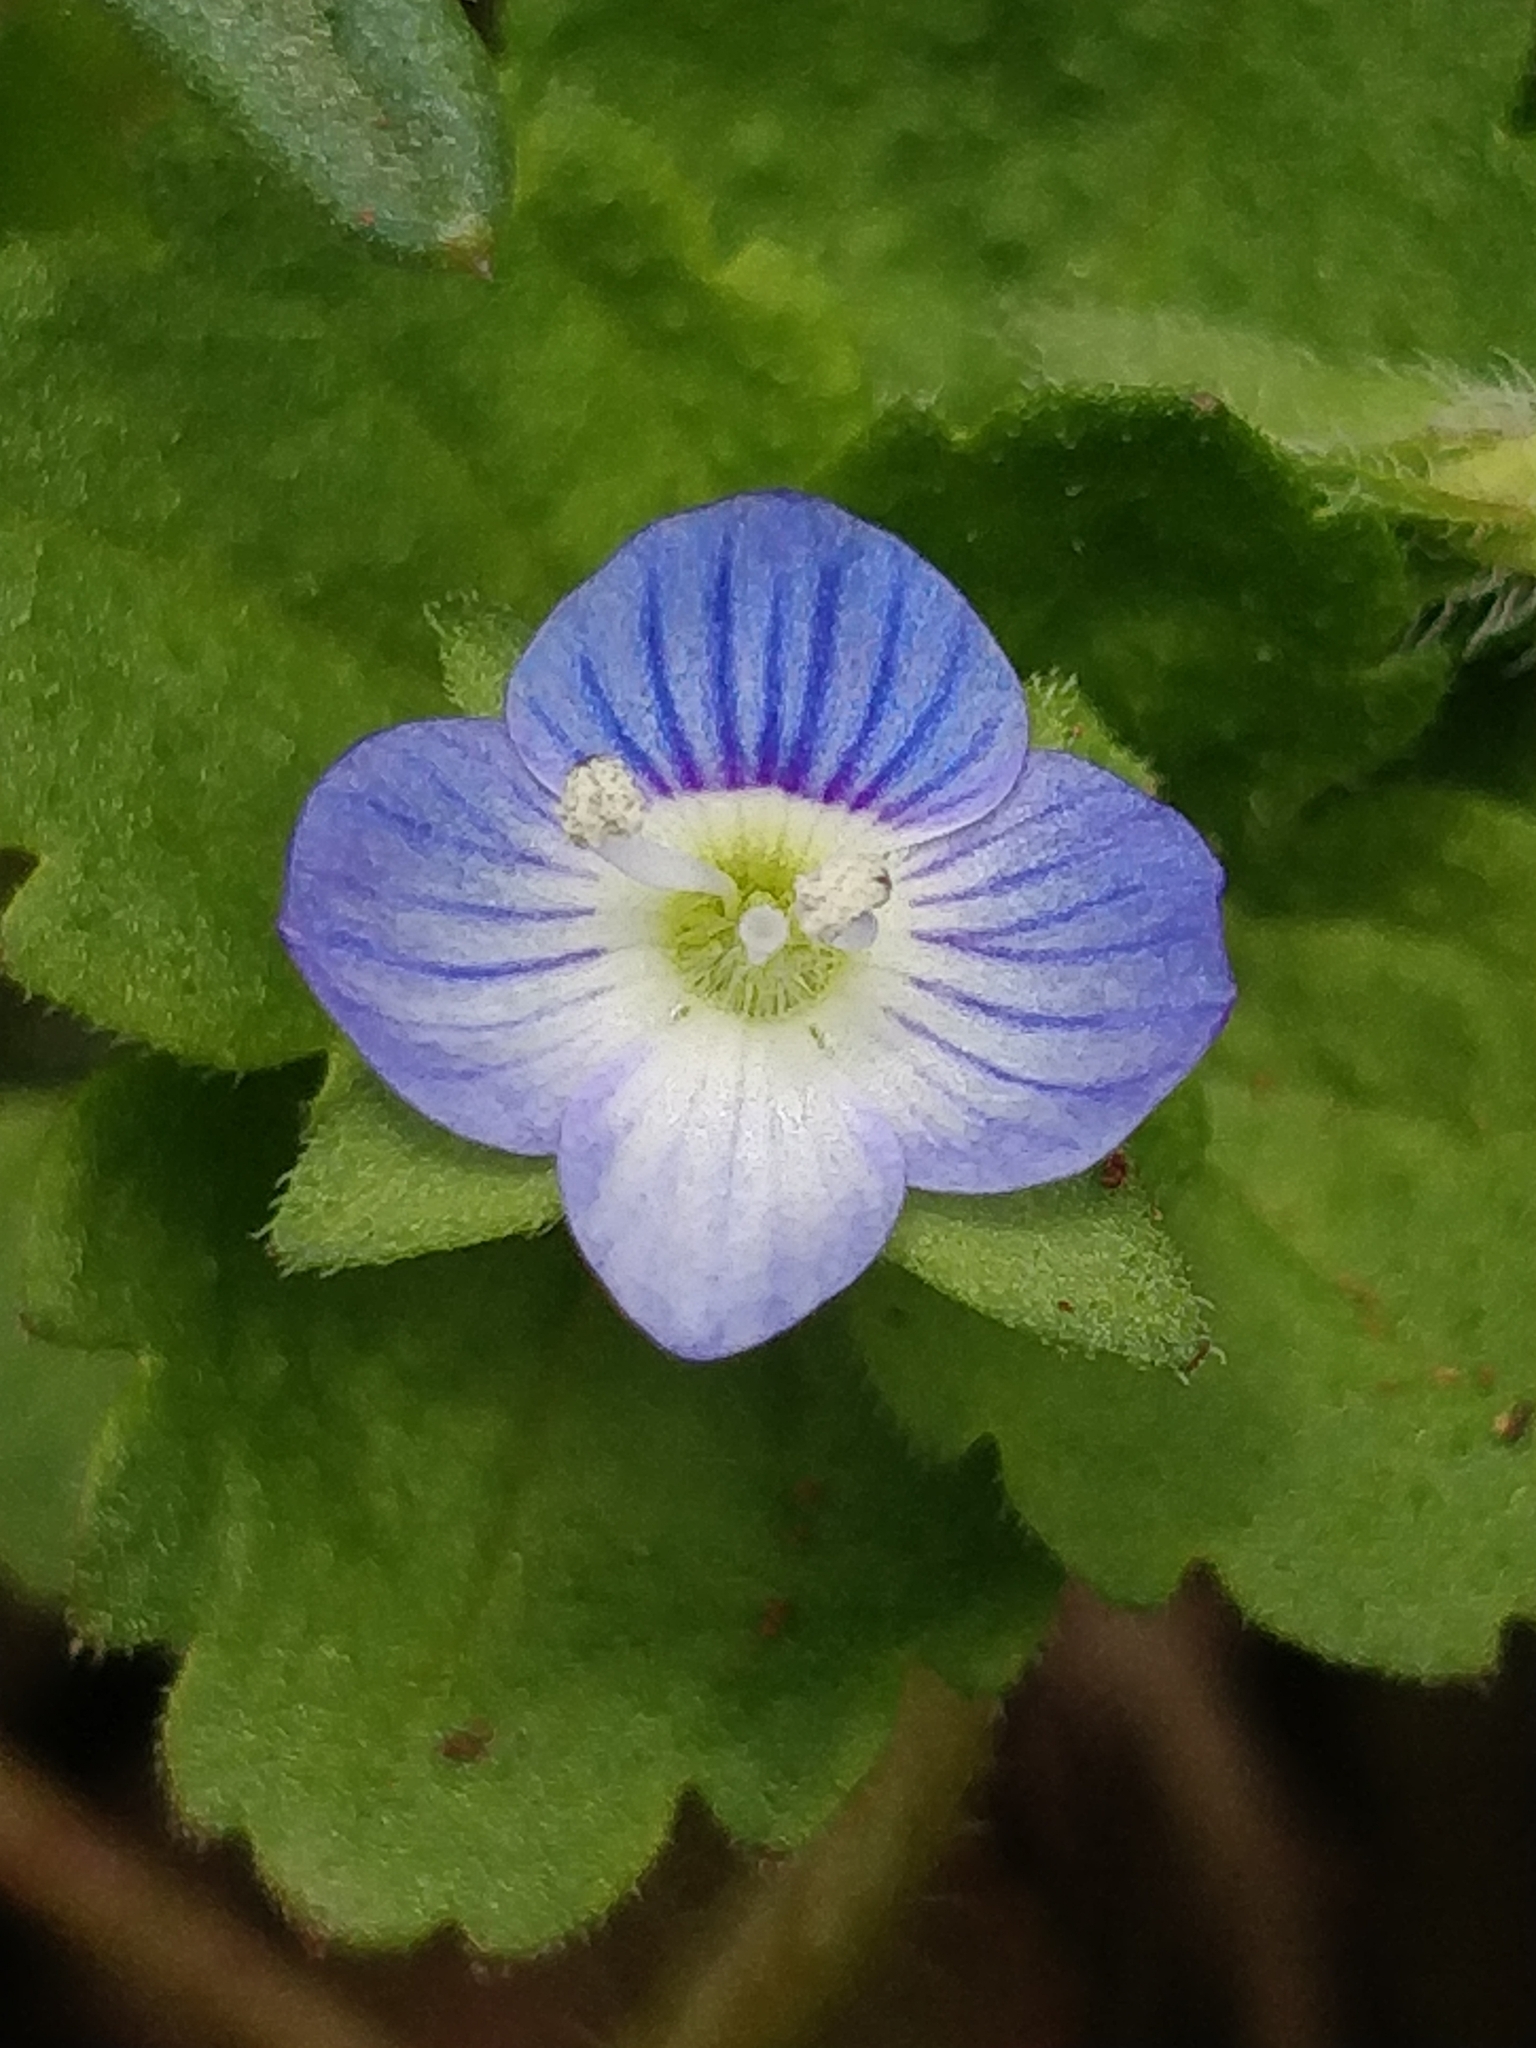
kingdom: Plantae
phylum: Tracheophyta
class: Magnoliopsida
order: Lamiales
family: Plantaginaceae
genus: Veronica
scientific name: Veronica persica
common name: Common field-speedwell
